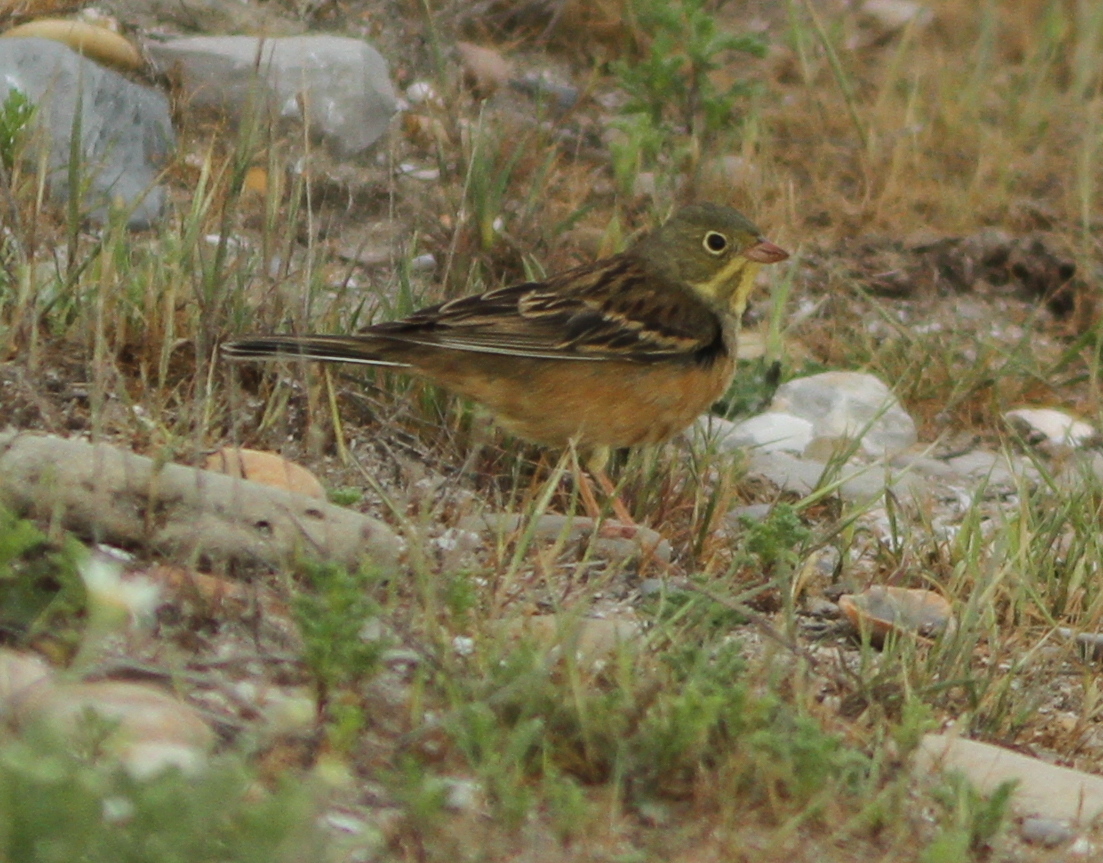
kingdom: Animalia
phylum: Chordata
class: Aves
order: Passeriformes
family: Emberizidae
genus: Emberiza
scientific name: Emberiza hortulana
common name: Ortolan bunting
